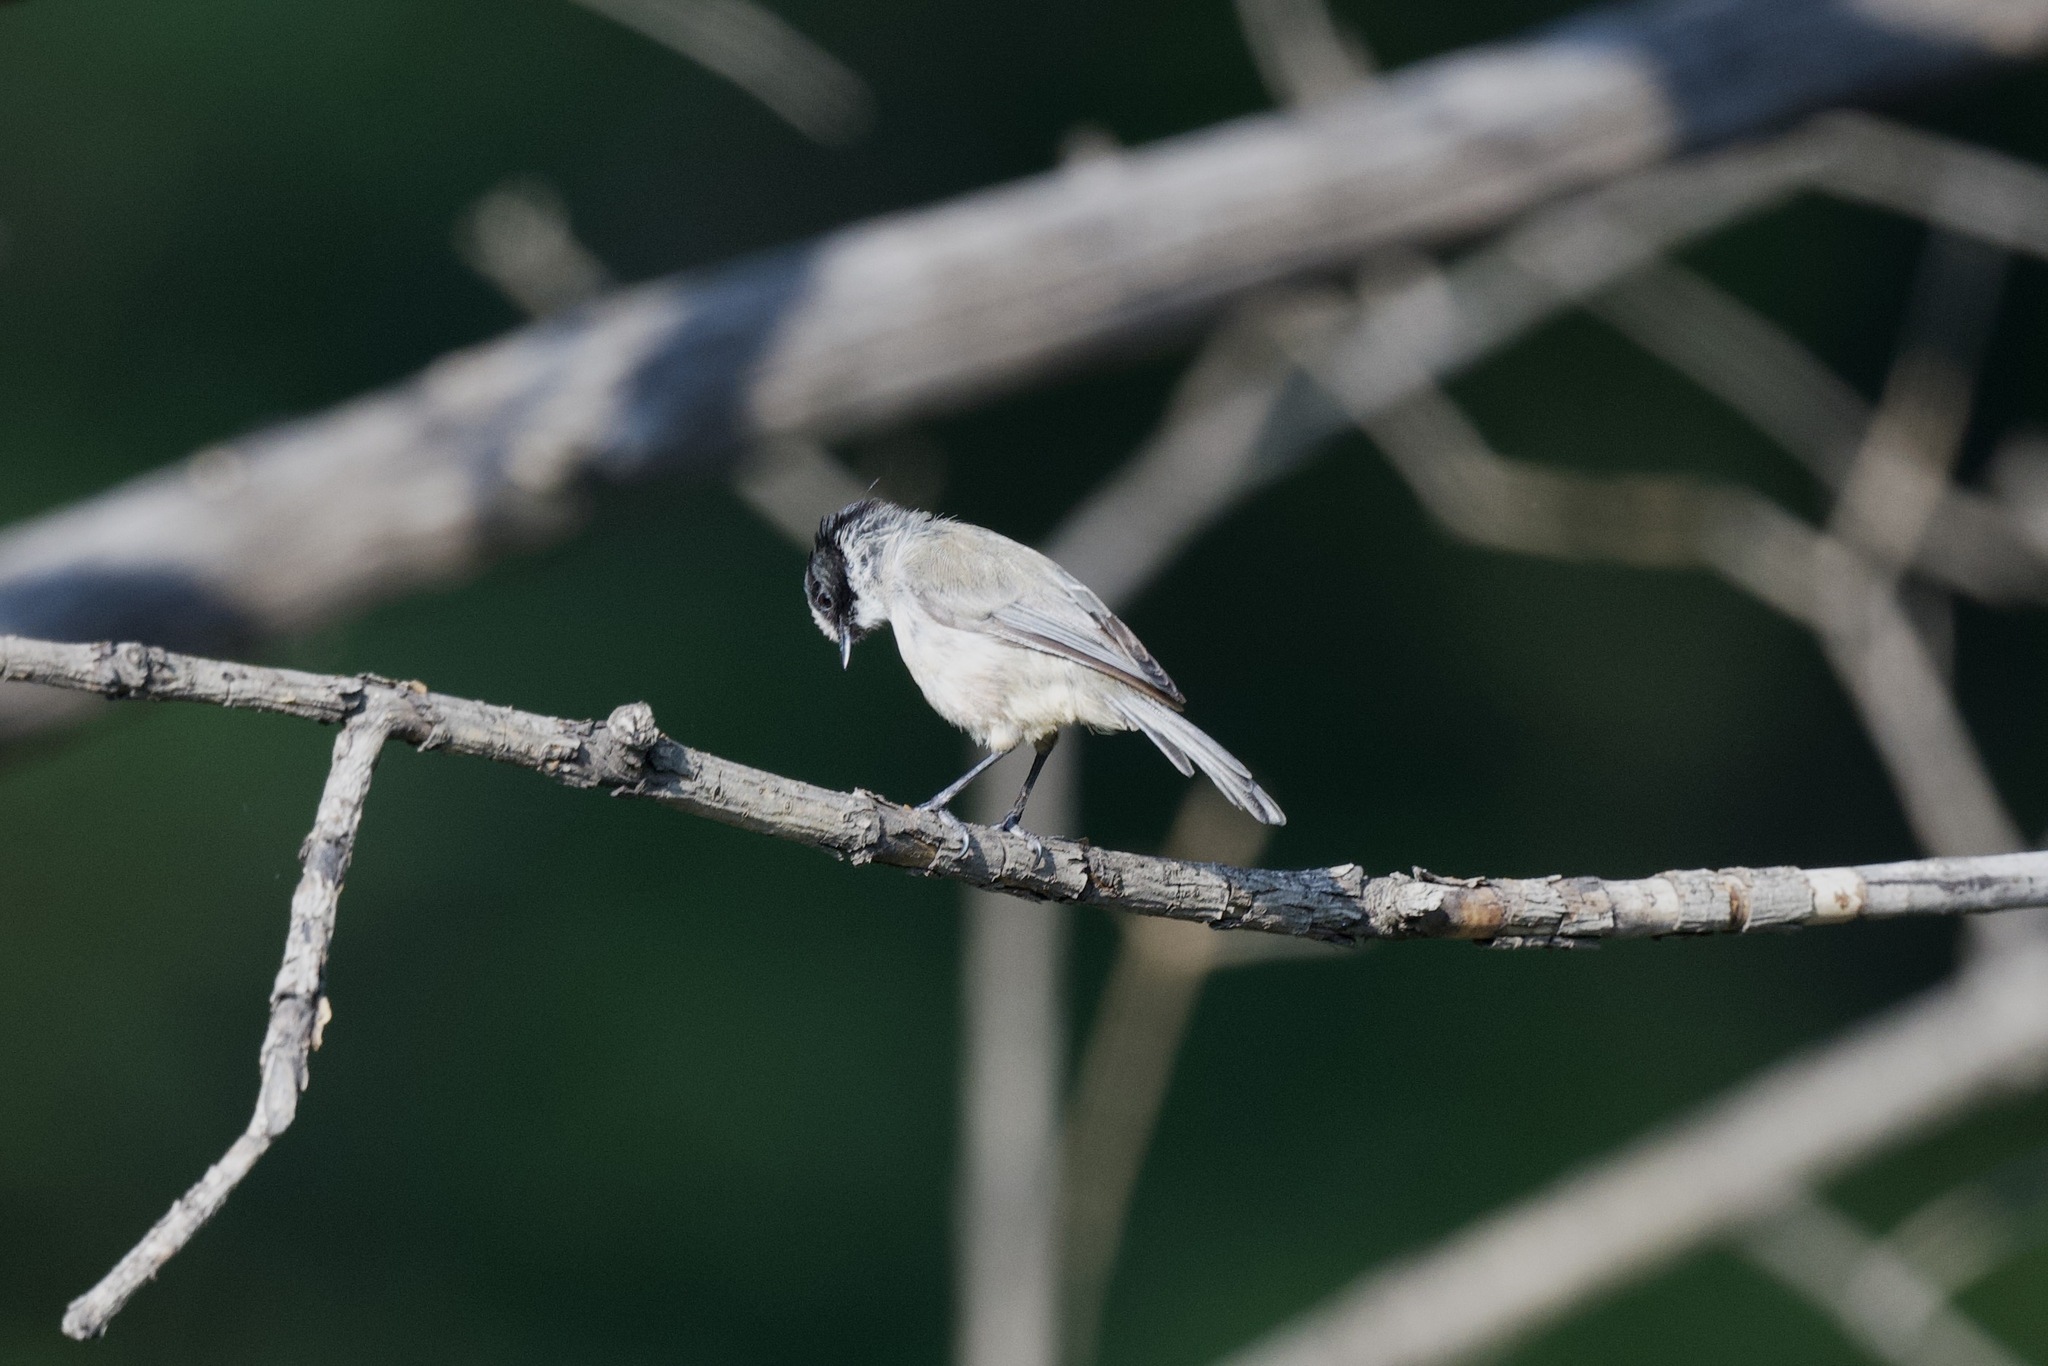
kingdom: Animalia
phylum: Chordata
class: Aves
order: Passeriformes
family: Aegithalidae
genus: Psaltriparus
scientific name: Psaltriparus minimus
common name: American bushtit
